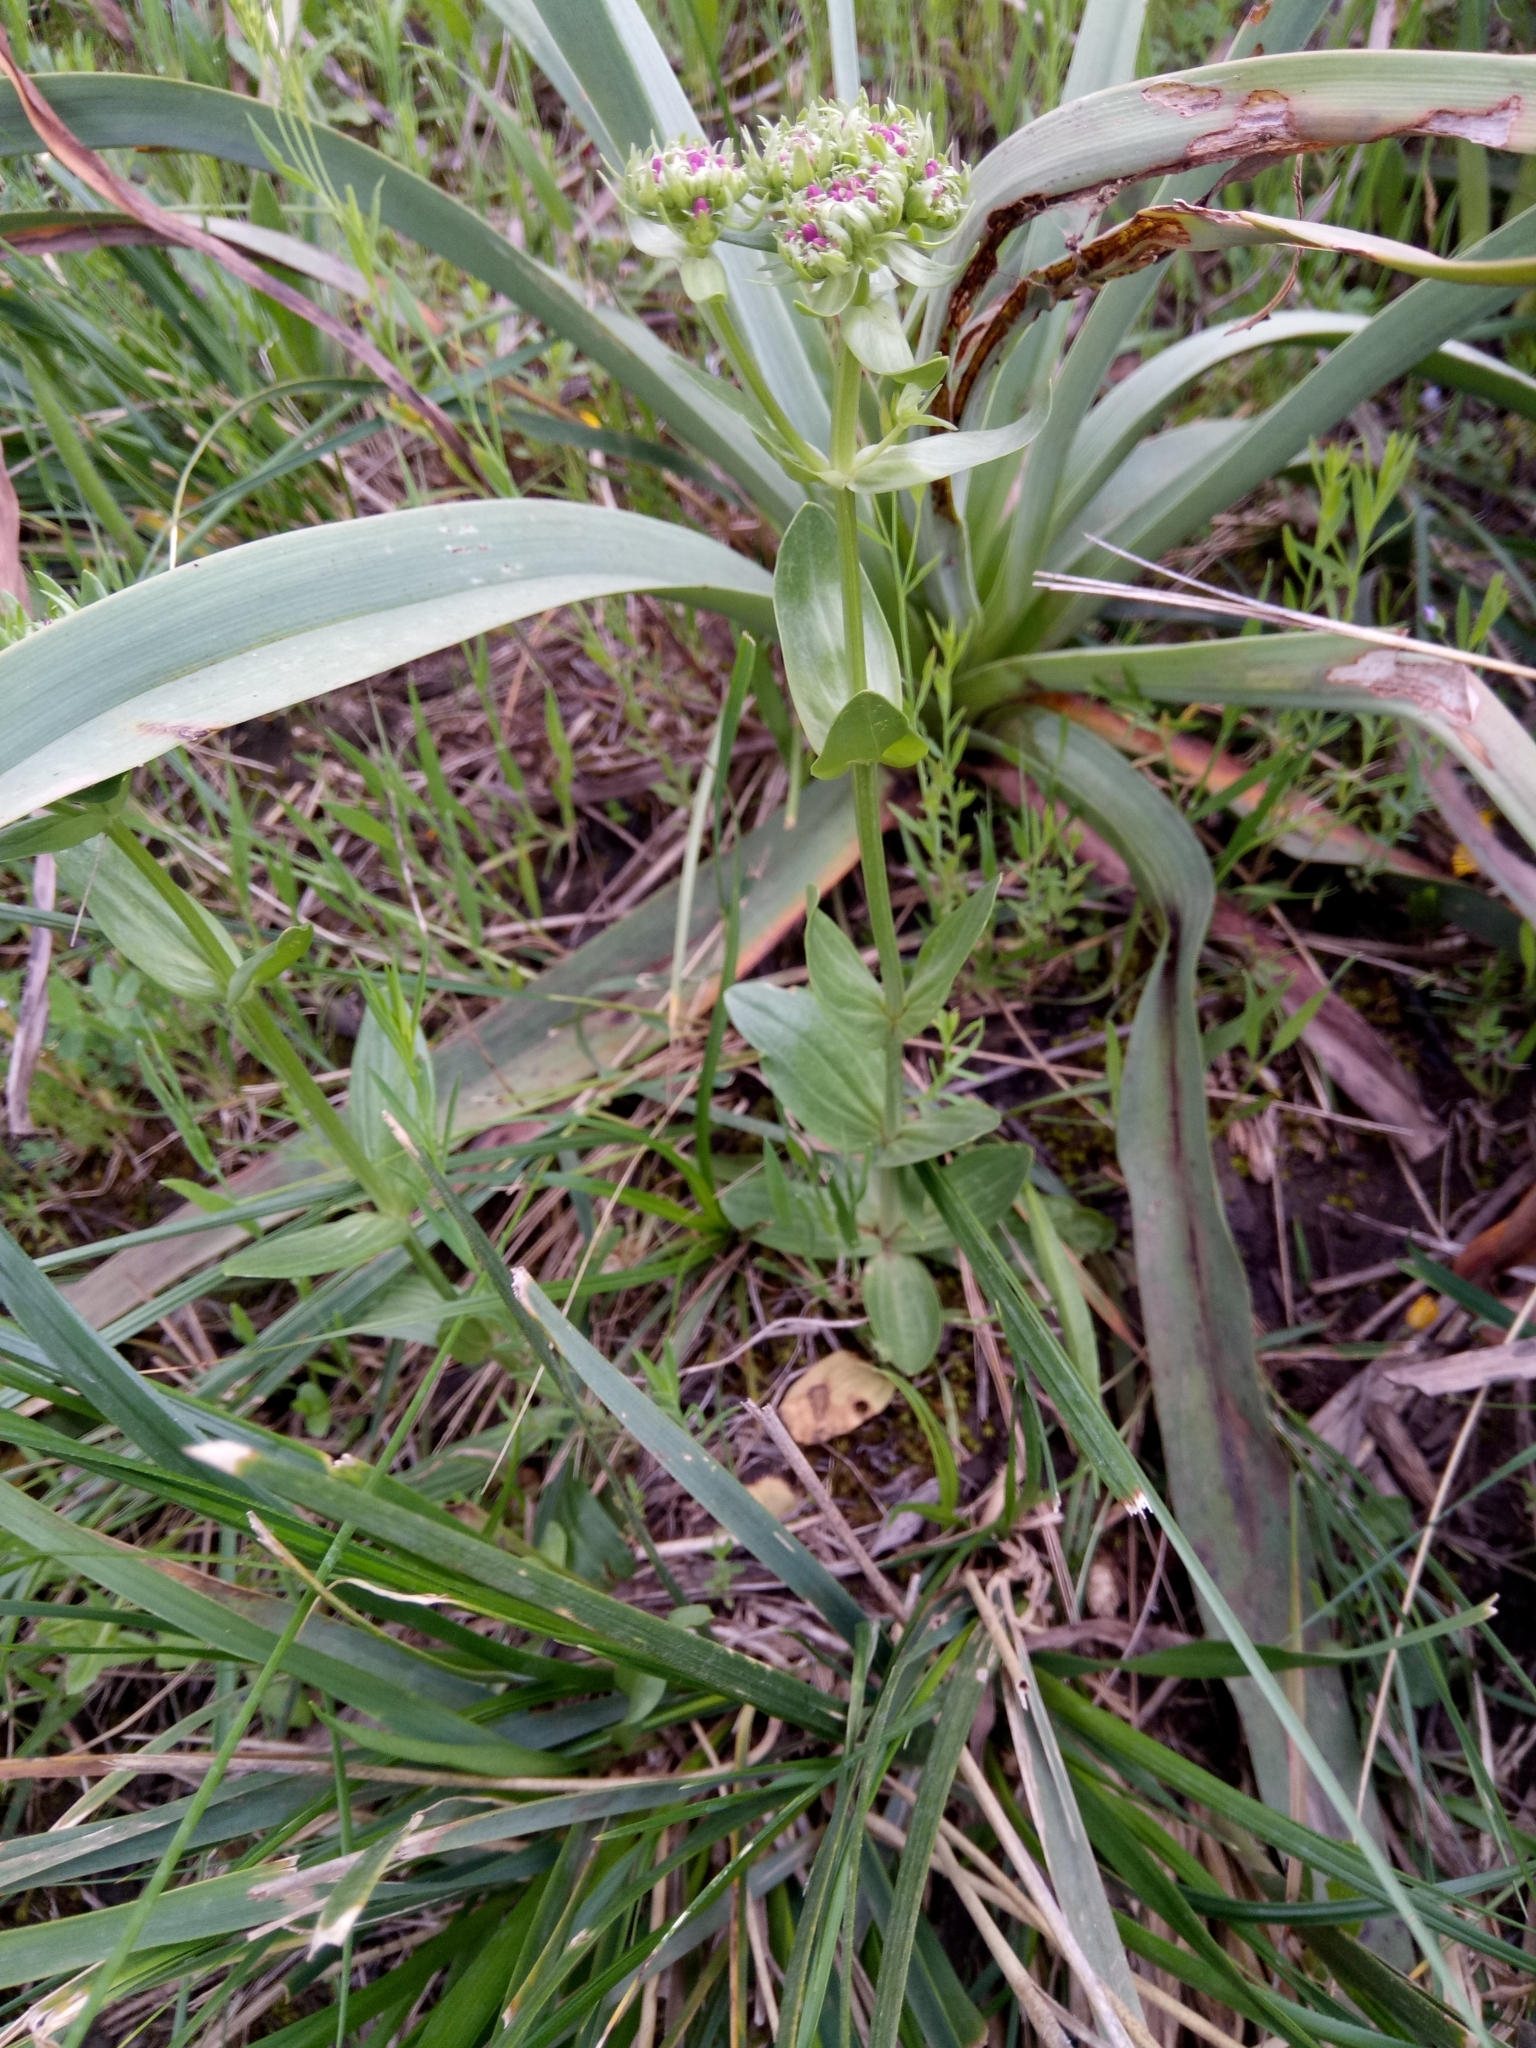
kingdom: Plantae
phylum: Tracheophyta
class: Magnoliopsida
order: Gentianales
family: Gentianaceae
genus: Centaurium
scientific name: Centaurium erythraea
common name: Common centaury
